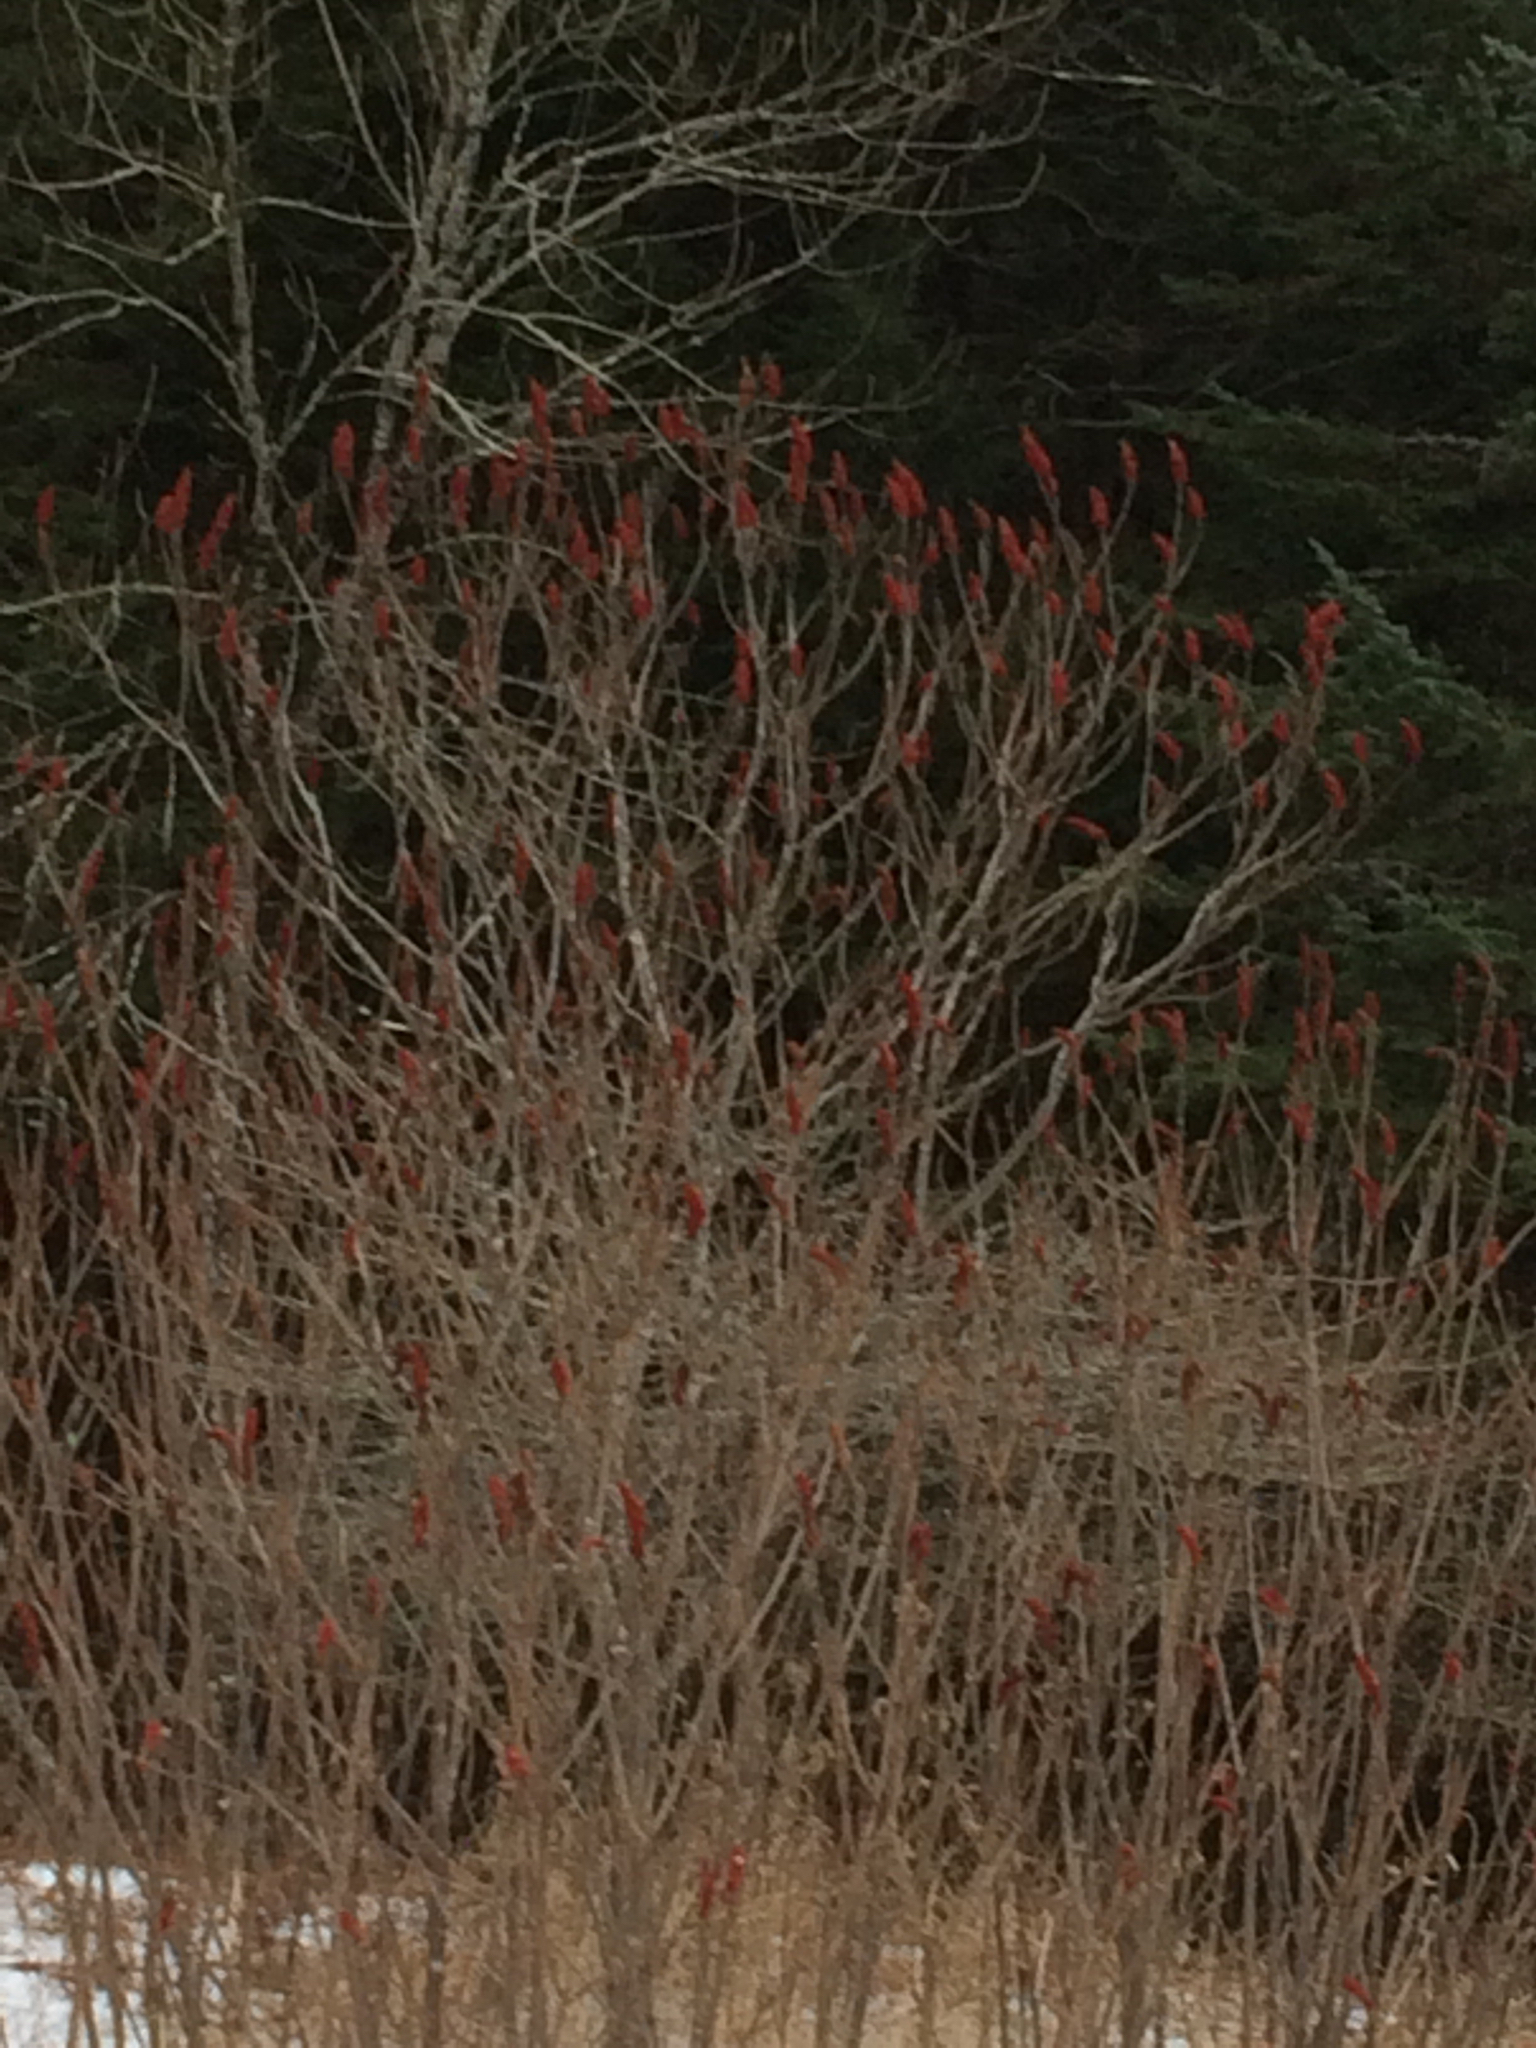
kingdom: Plantae
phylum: Tracheophyta
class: Magnoliopsida
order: Sapindales
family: Anacardiaceae
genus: Rhus
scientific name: Rhus typhina
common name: Staghorn sumac
